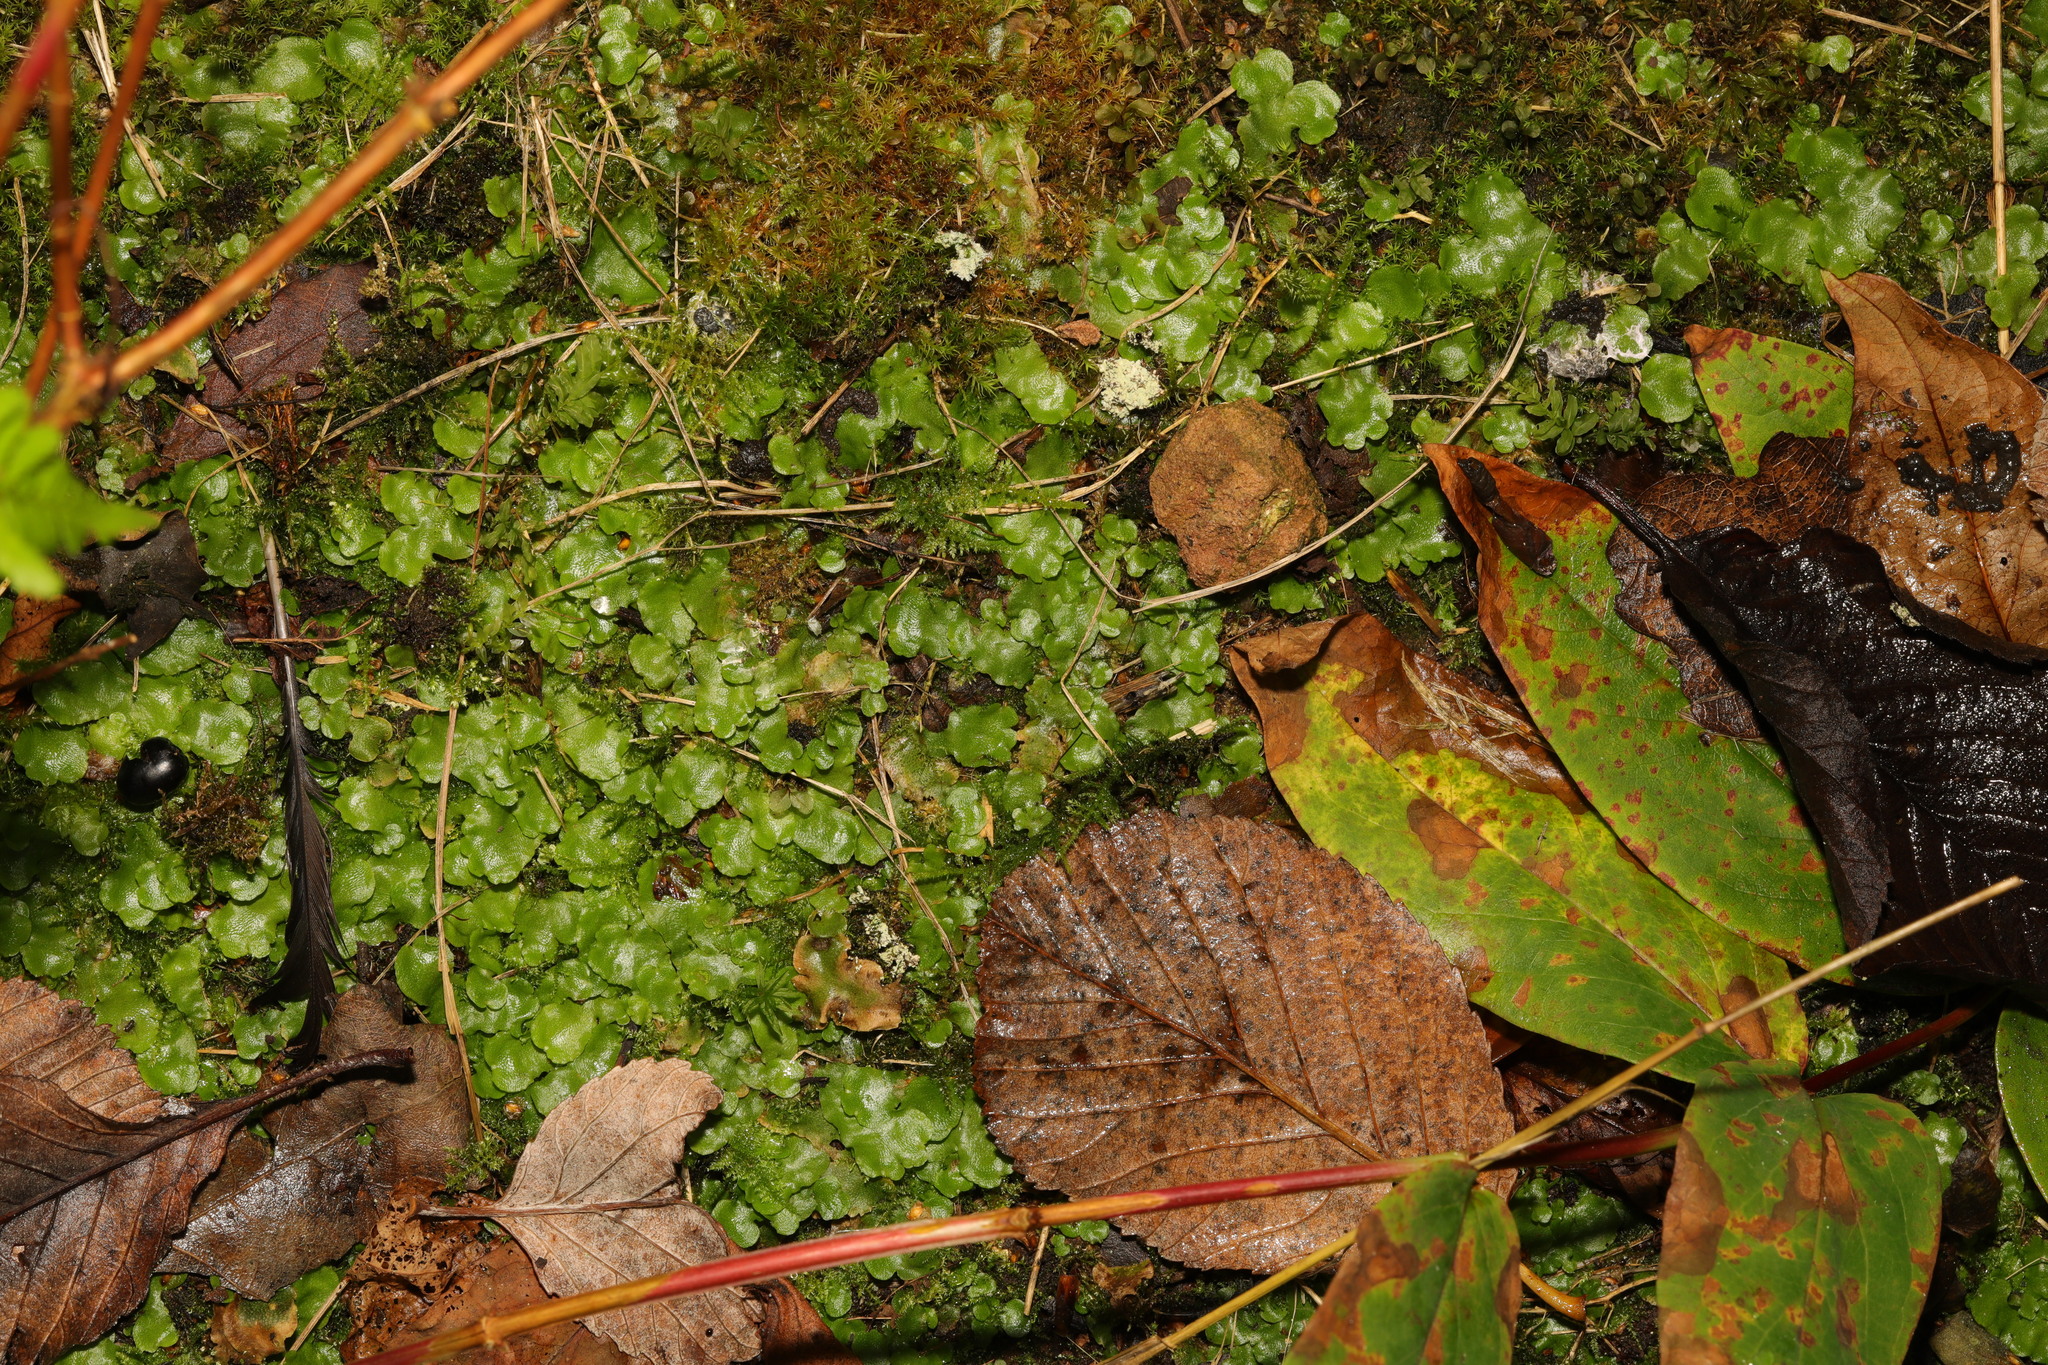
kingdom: Plantae
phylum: Marchantiophyta
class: Marchantiopsida
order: Lunulariales
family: Lunulariaceae
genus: Lunularia
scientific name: Lunularia cruciata
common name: Crescent-cup liverwort
